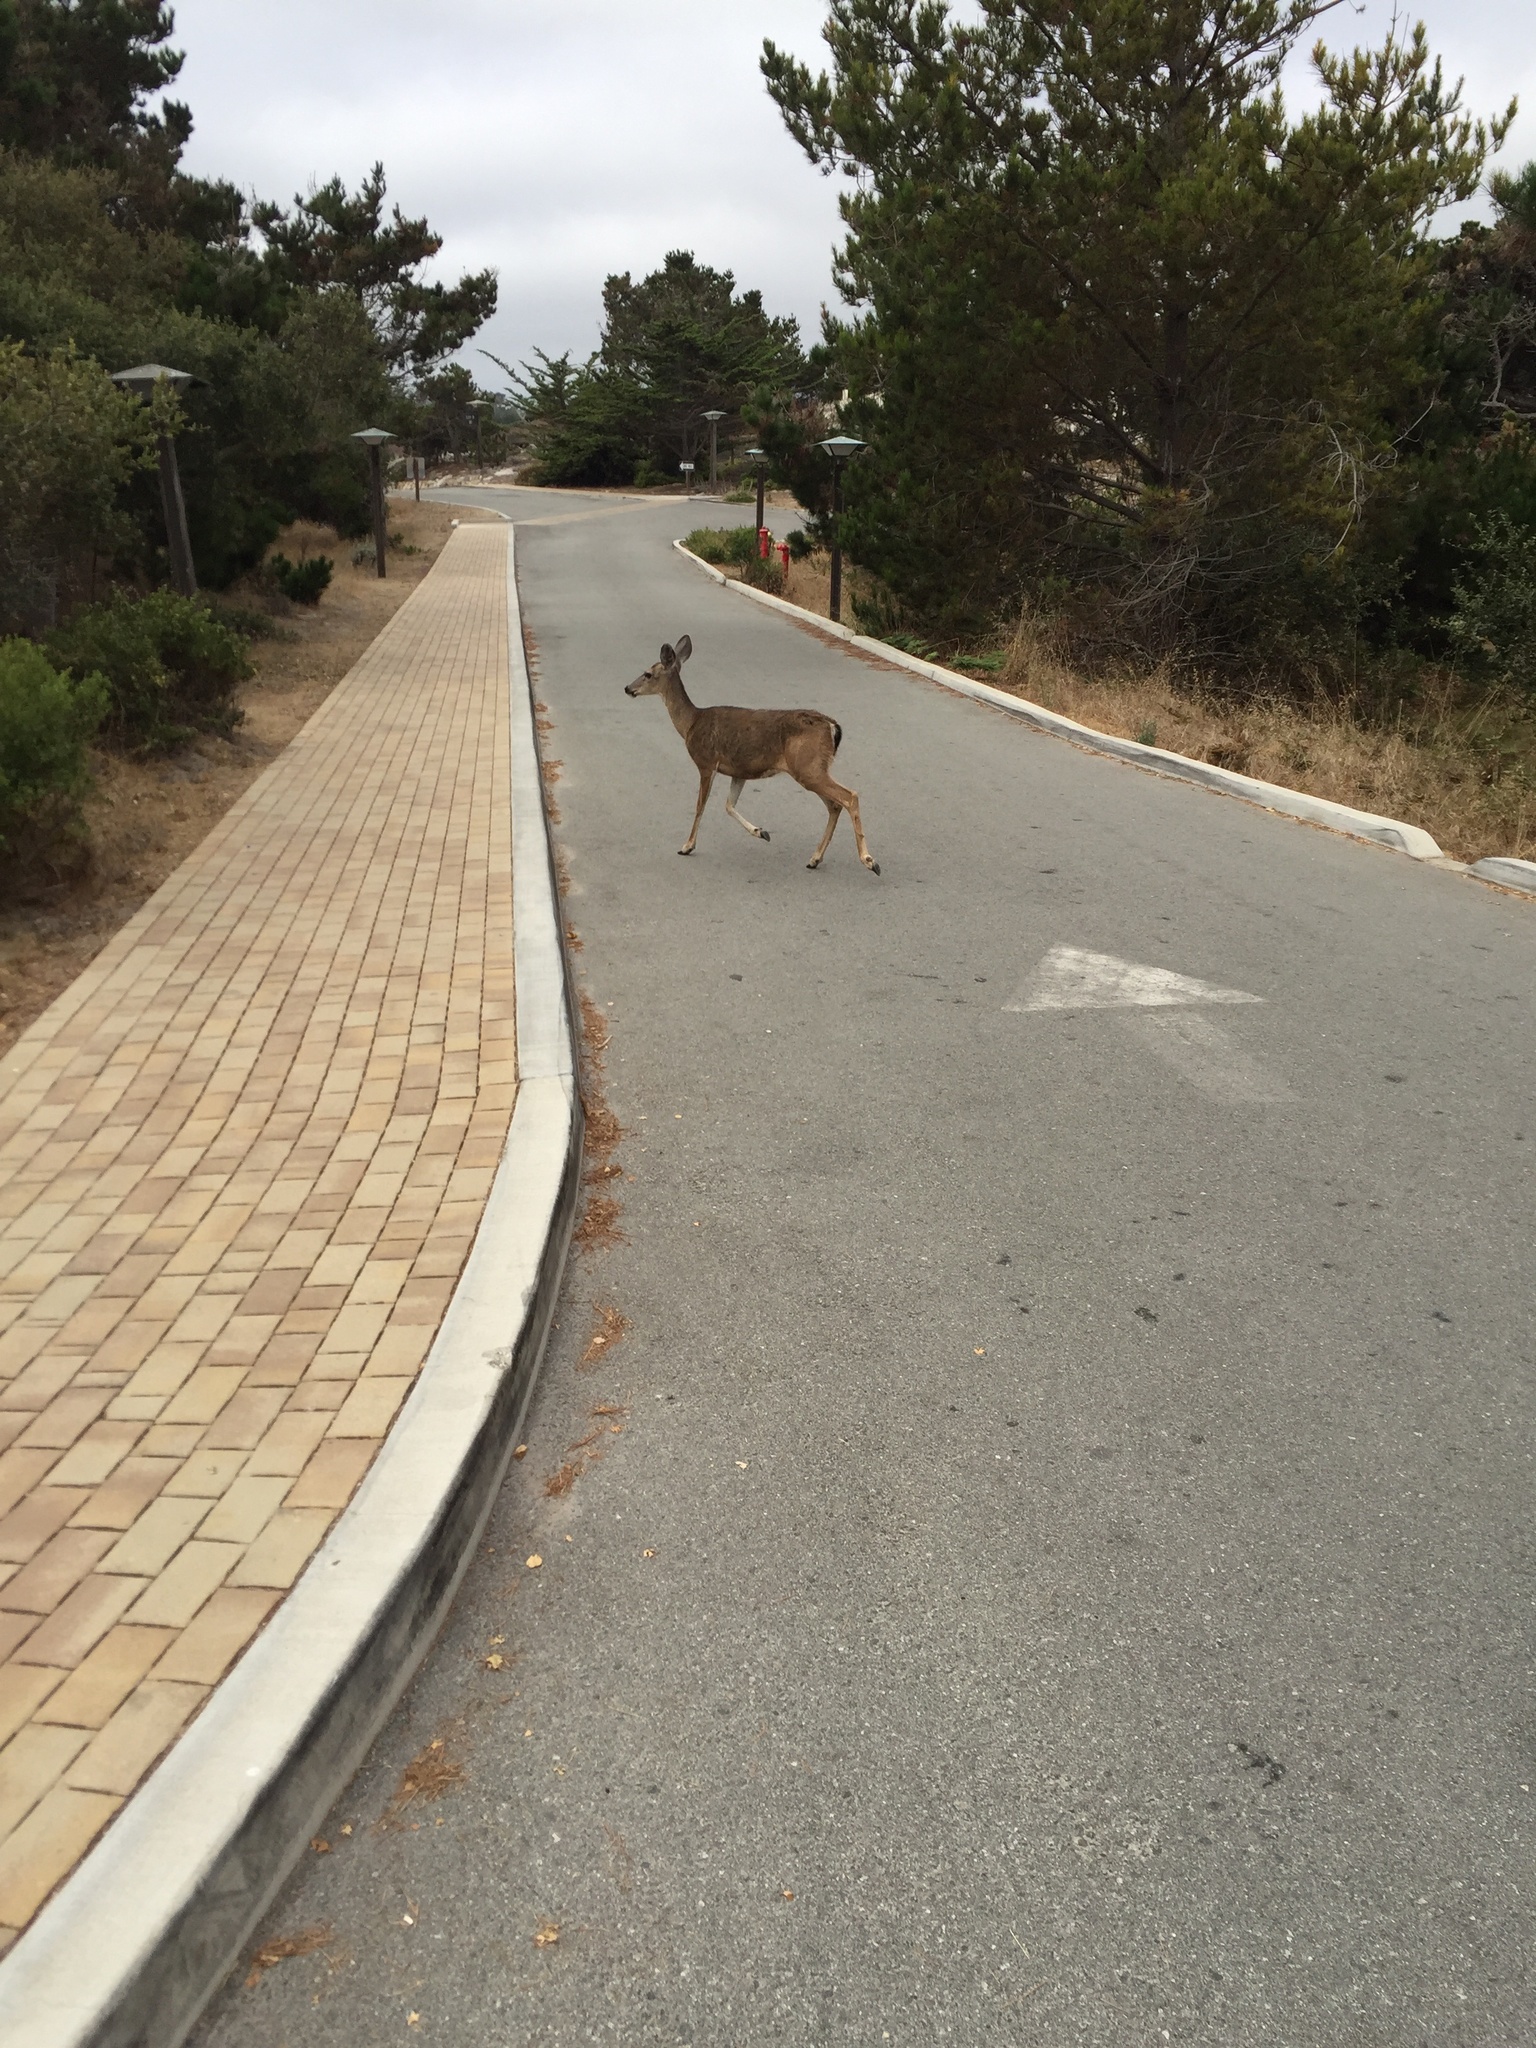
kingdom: Animalia
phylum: Chordata
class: Mammalia
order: Artiodactyla
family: Cervidae
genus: Odocoileus
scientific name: Odocoileus hemionus
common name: Mule deer
